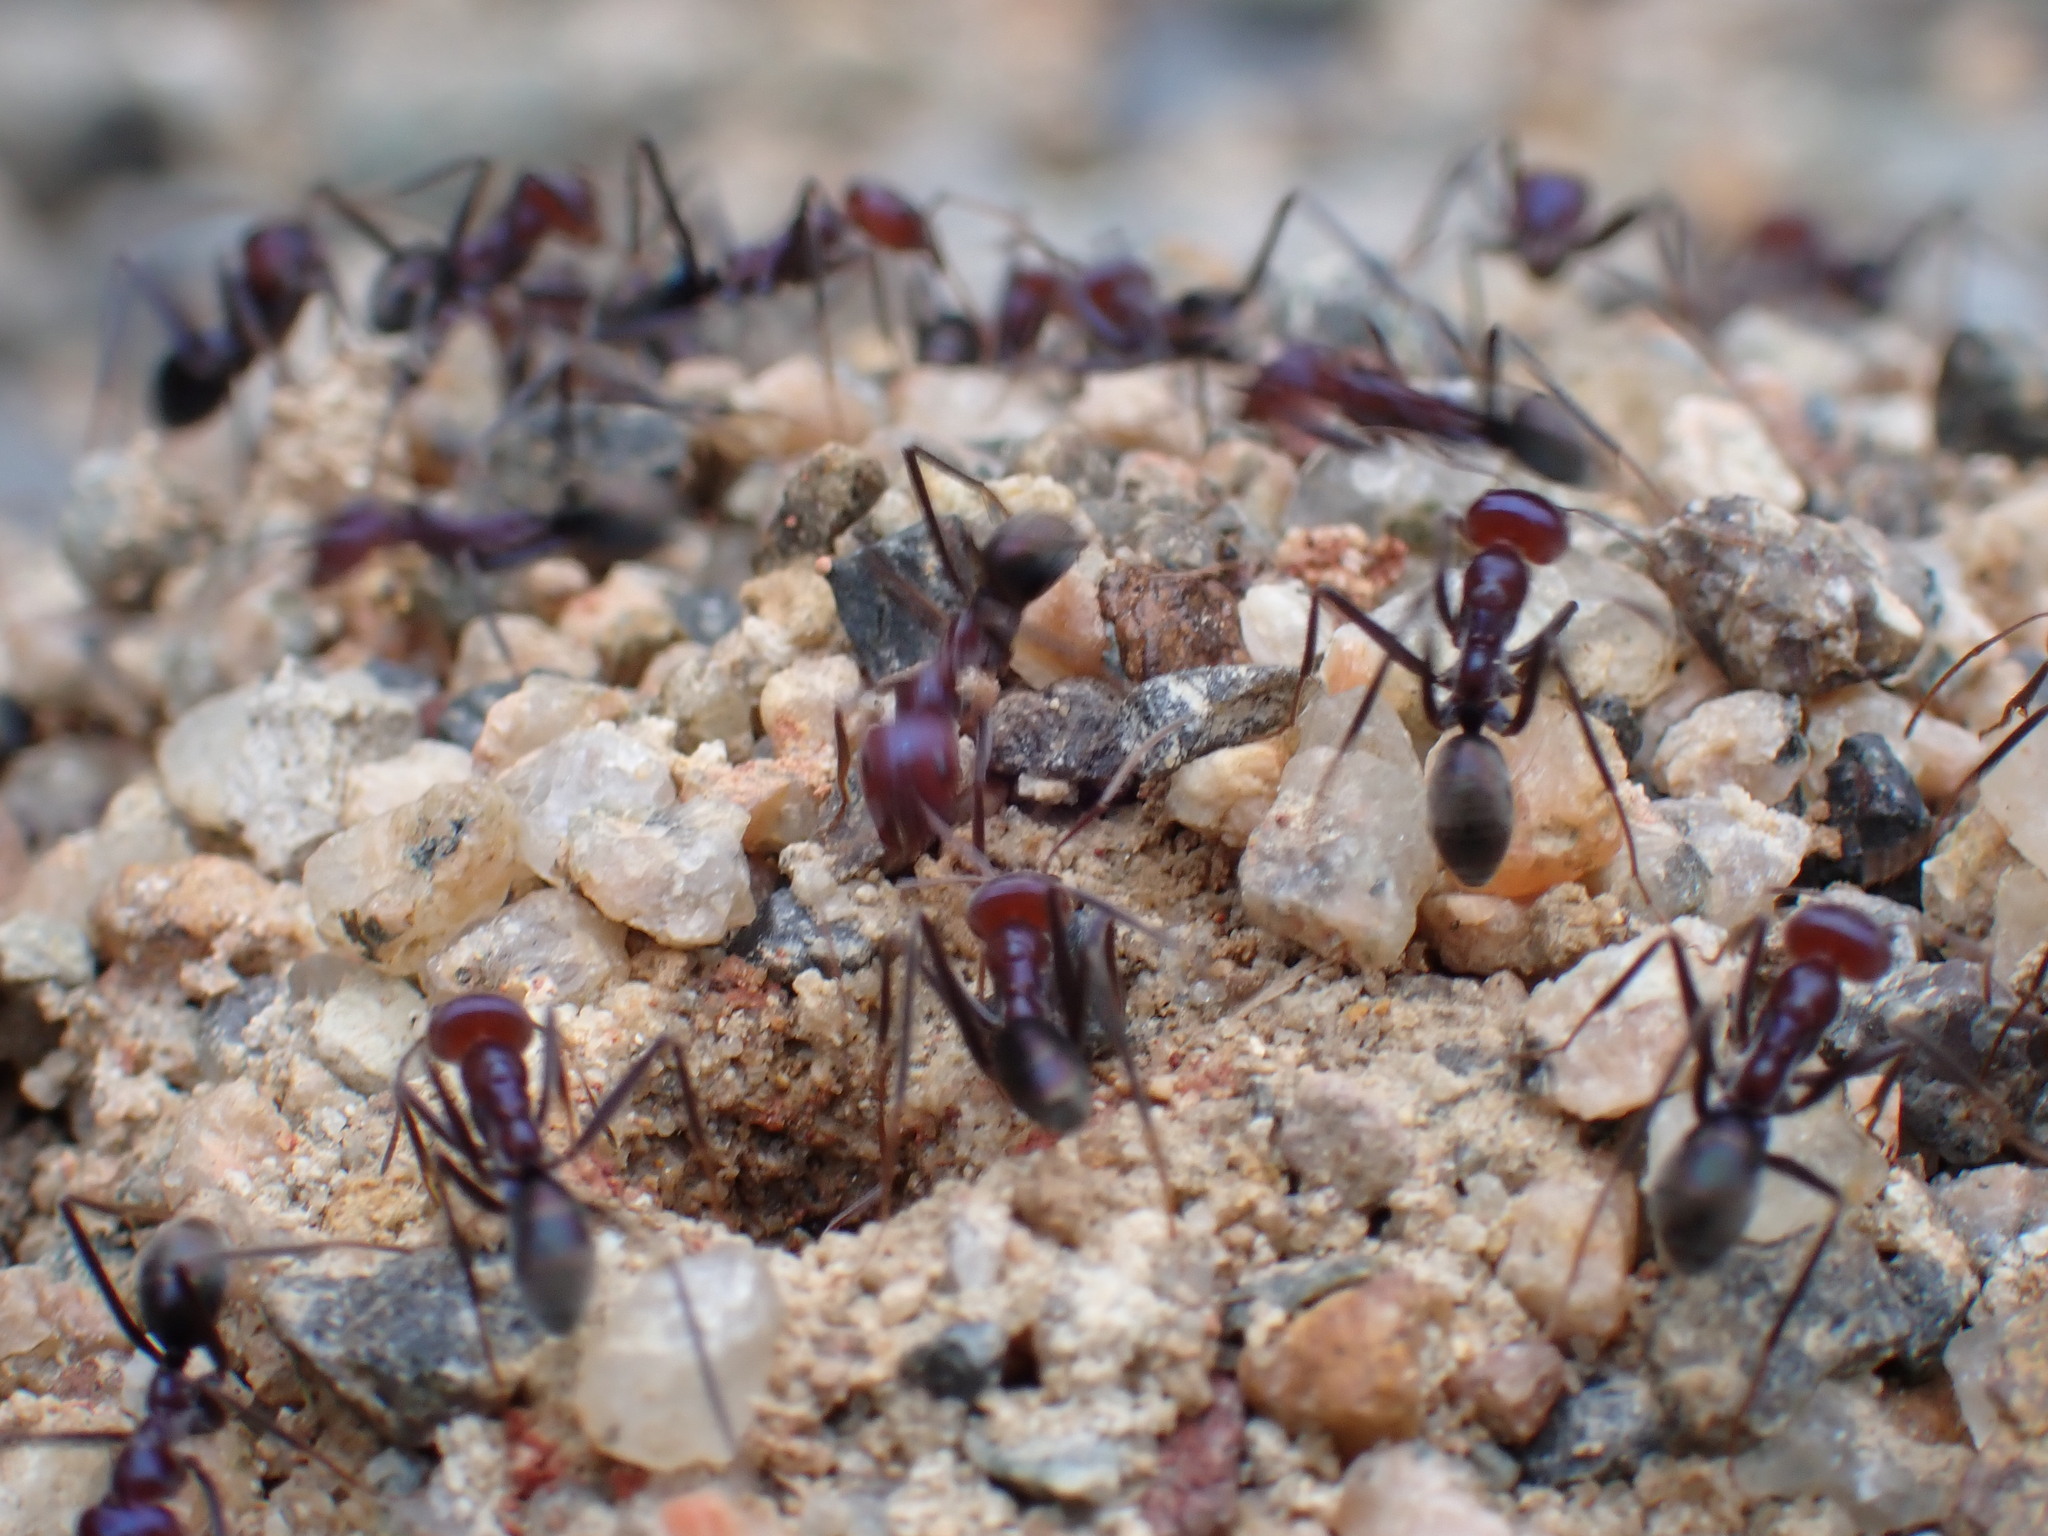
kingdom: Animalia
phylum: Arthropoda
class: Insecta
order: Hymenoptera
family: Formicidae
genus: Iridomyrmex
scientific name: Iridomyrmex purpureus
